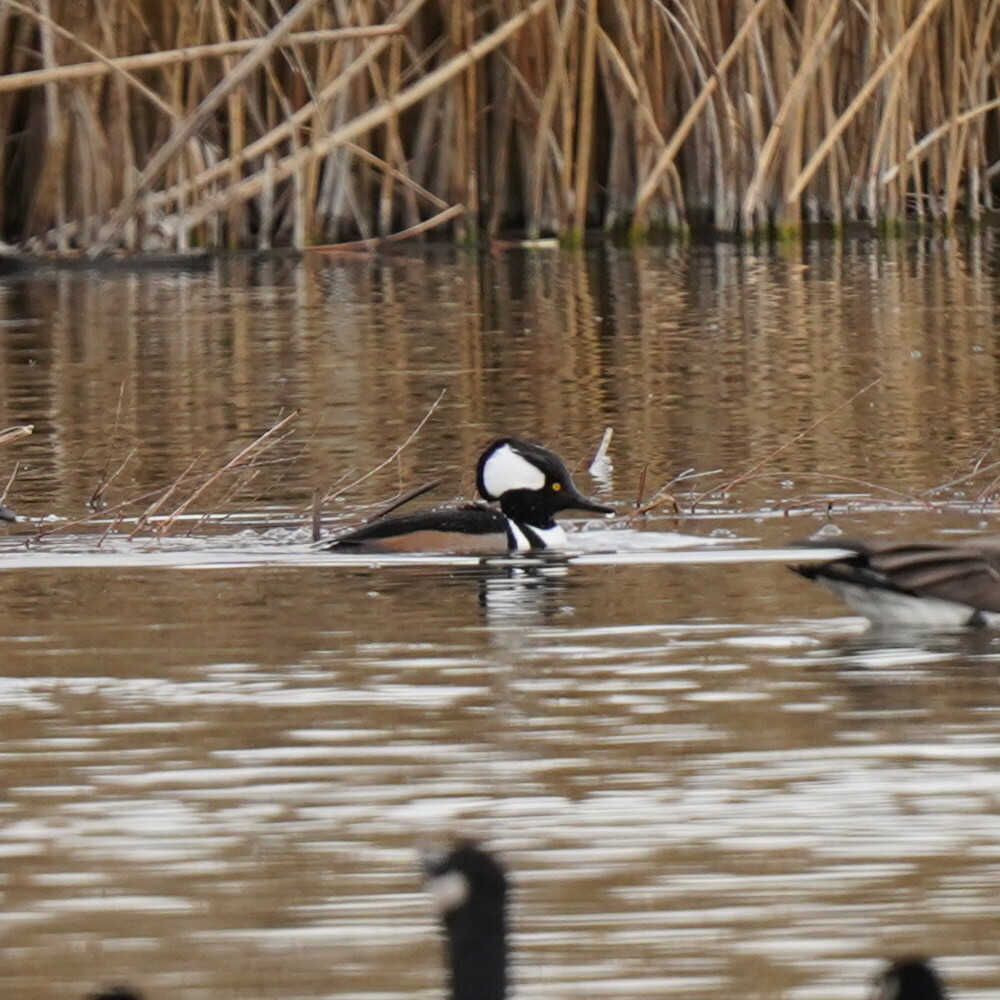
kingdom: Animalia
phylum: Chordata
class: Aves
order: Anseriformes
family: Anatidae
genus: Lophodytes
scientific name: Lophodytes cucullatus
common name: Hooded merganser
